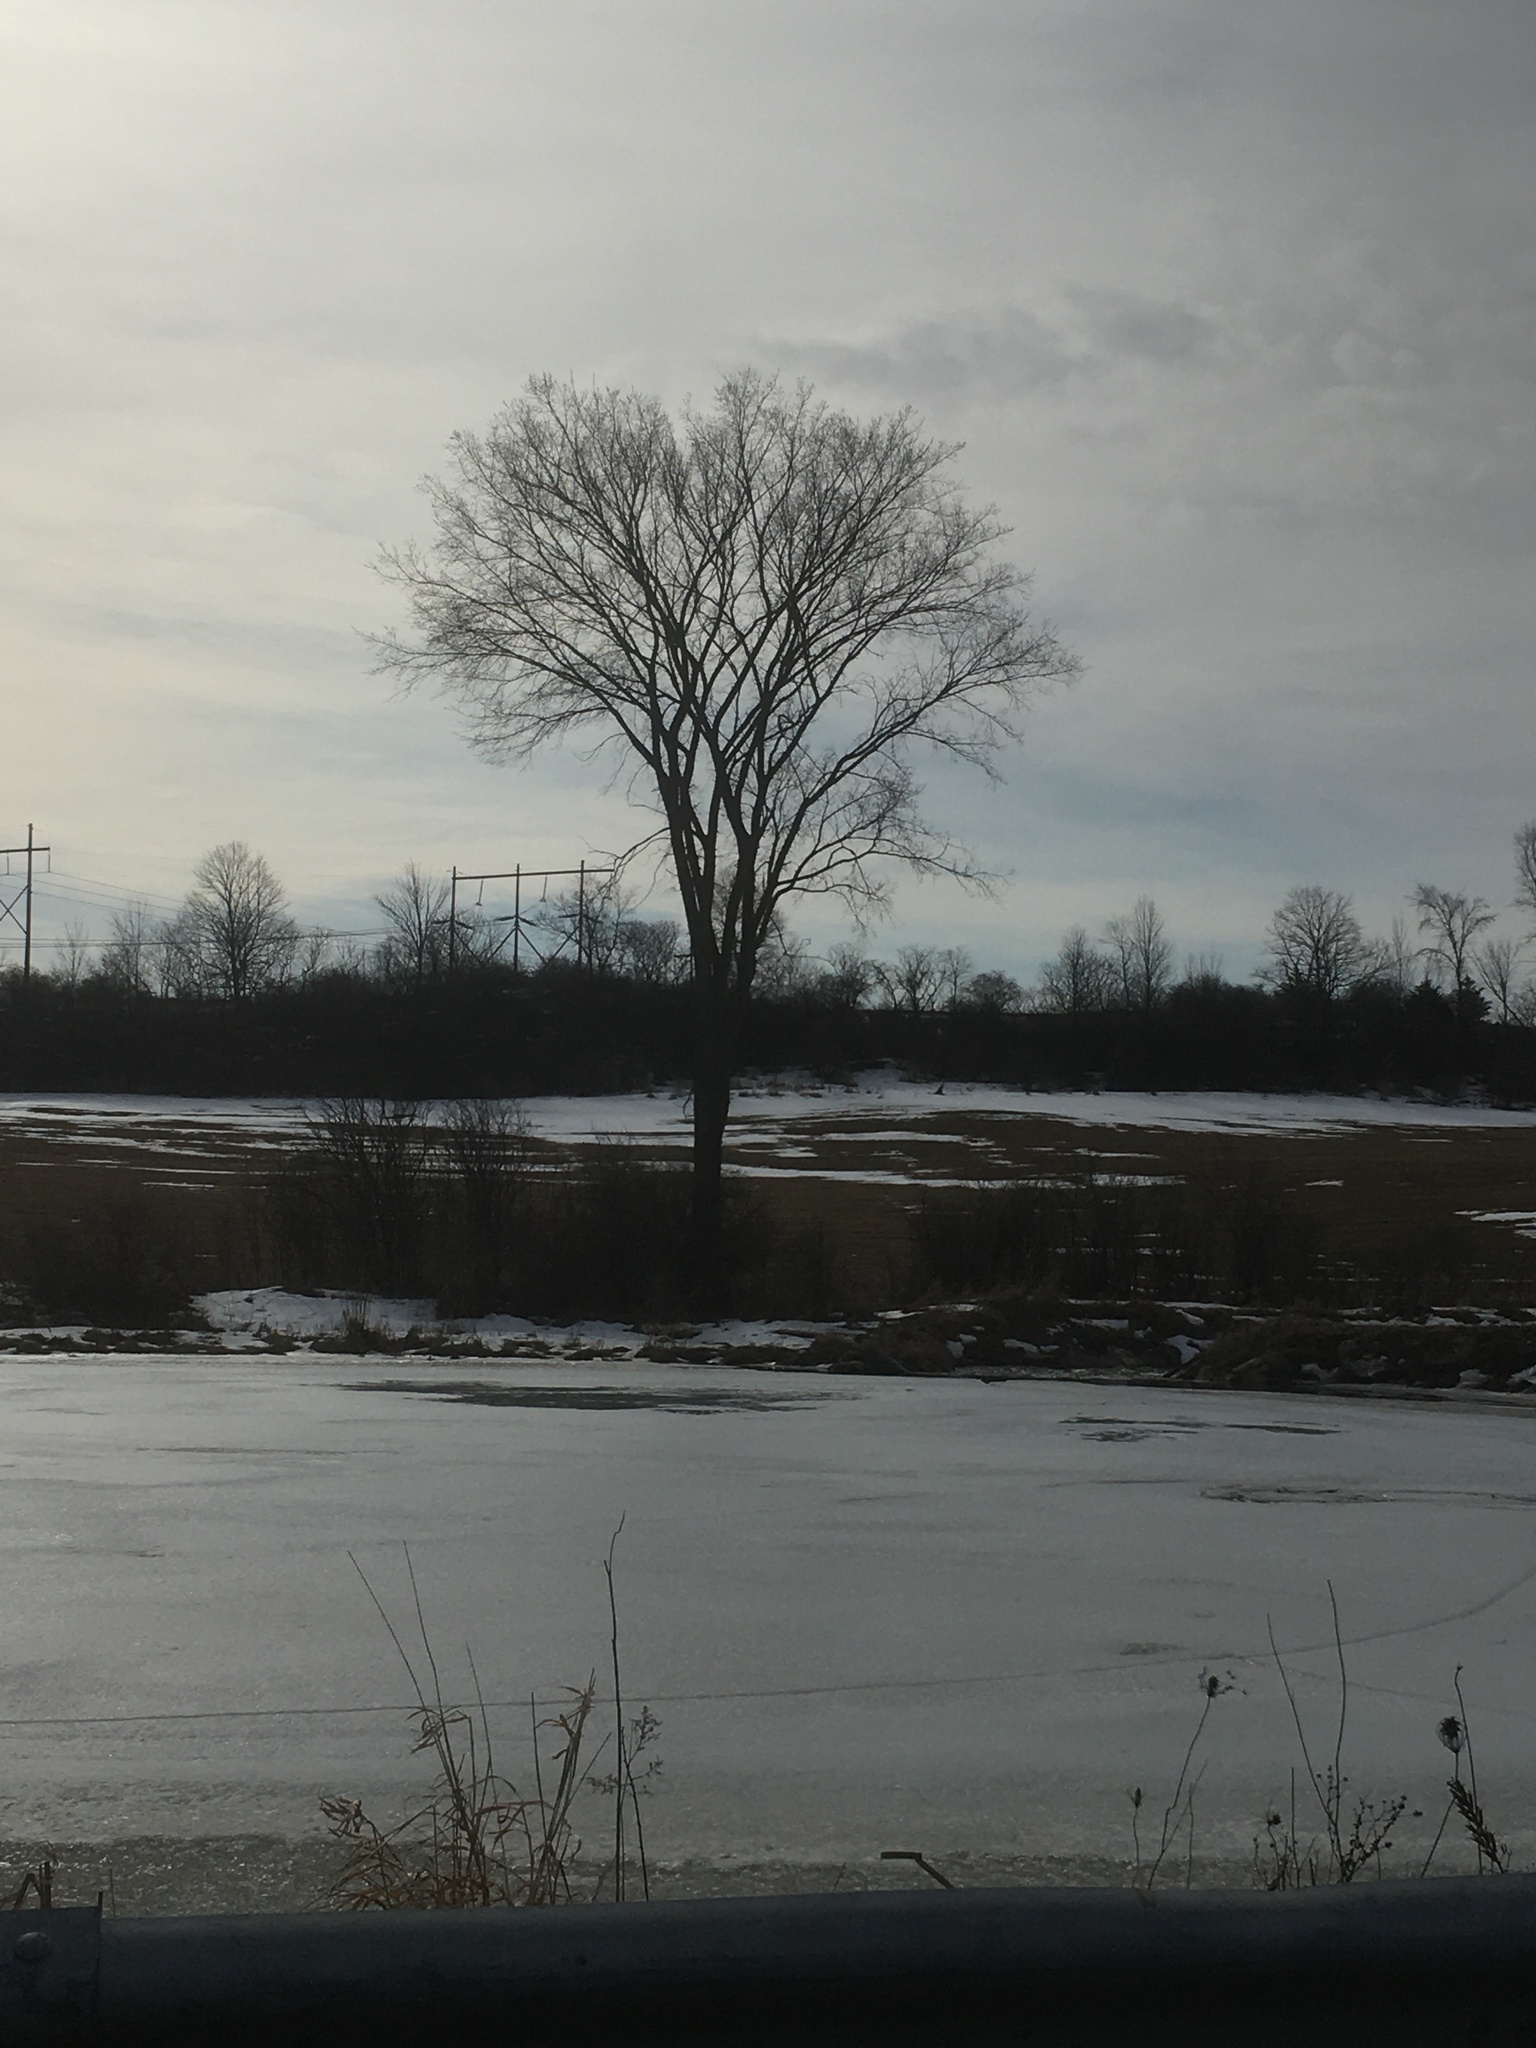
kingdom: Plantae
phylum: Tracheophyta
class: Magnoliopsida
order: Rosales
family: Ulmaceae
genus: Ulmus
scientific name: Ulmus americana
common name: American elm
